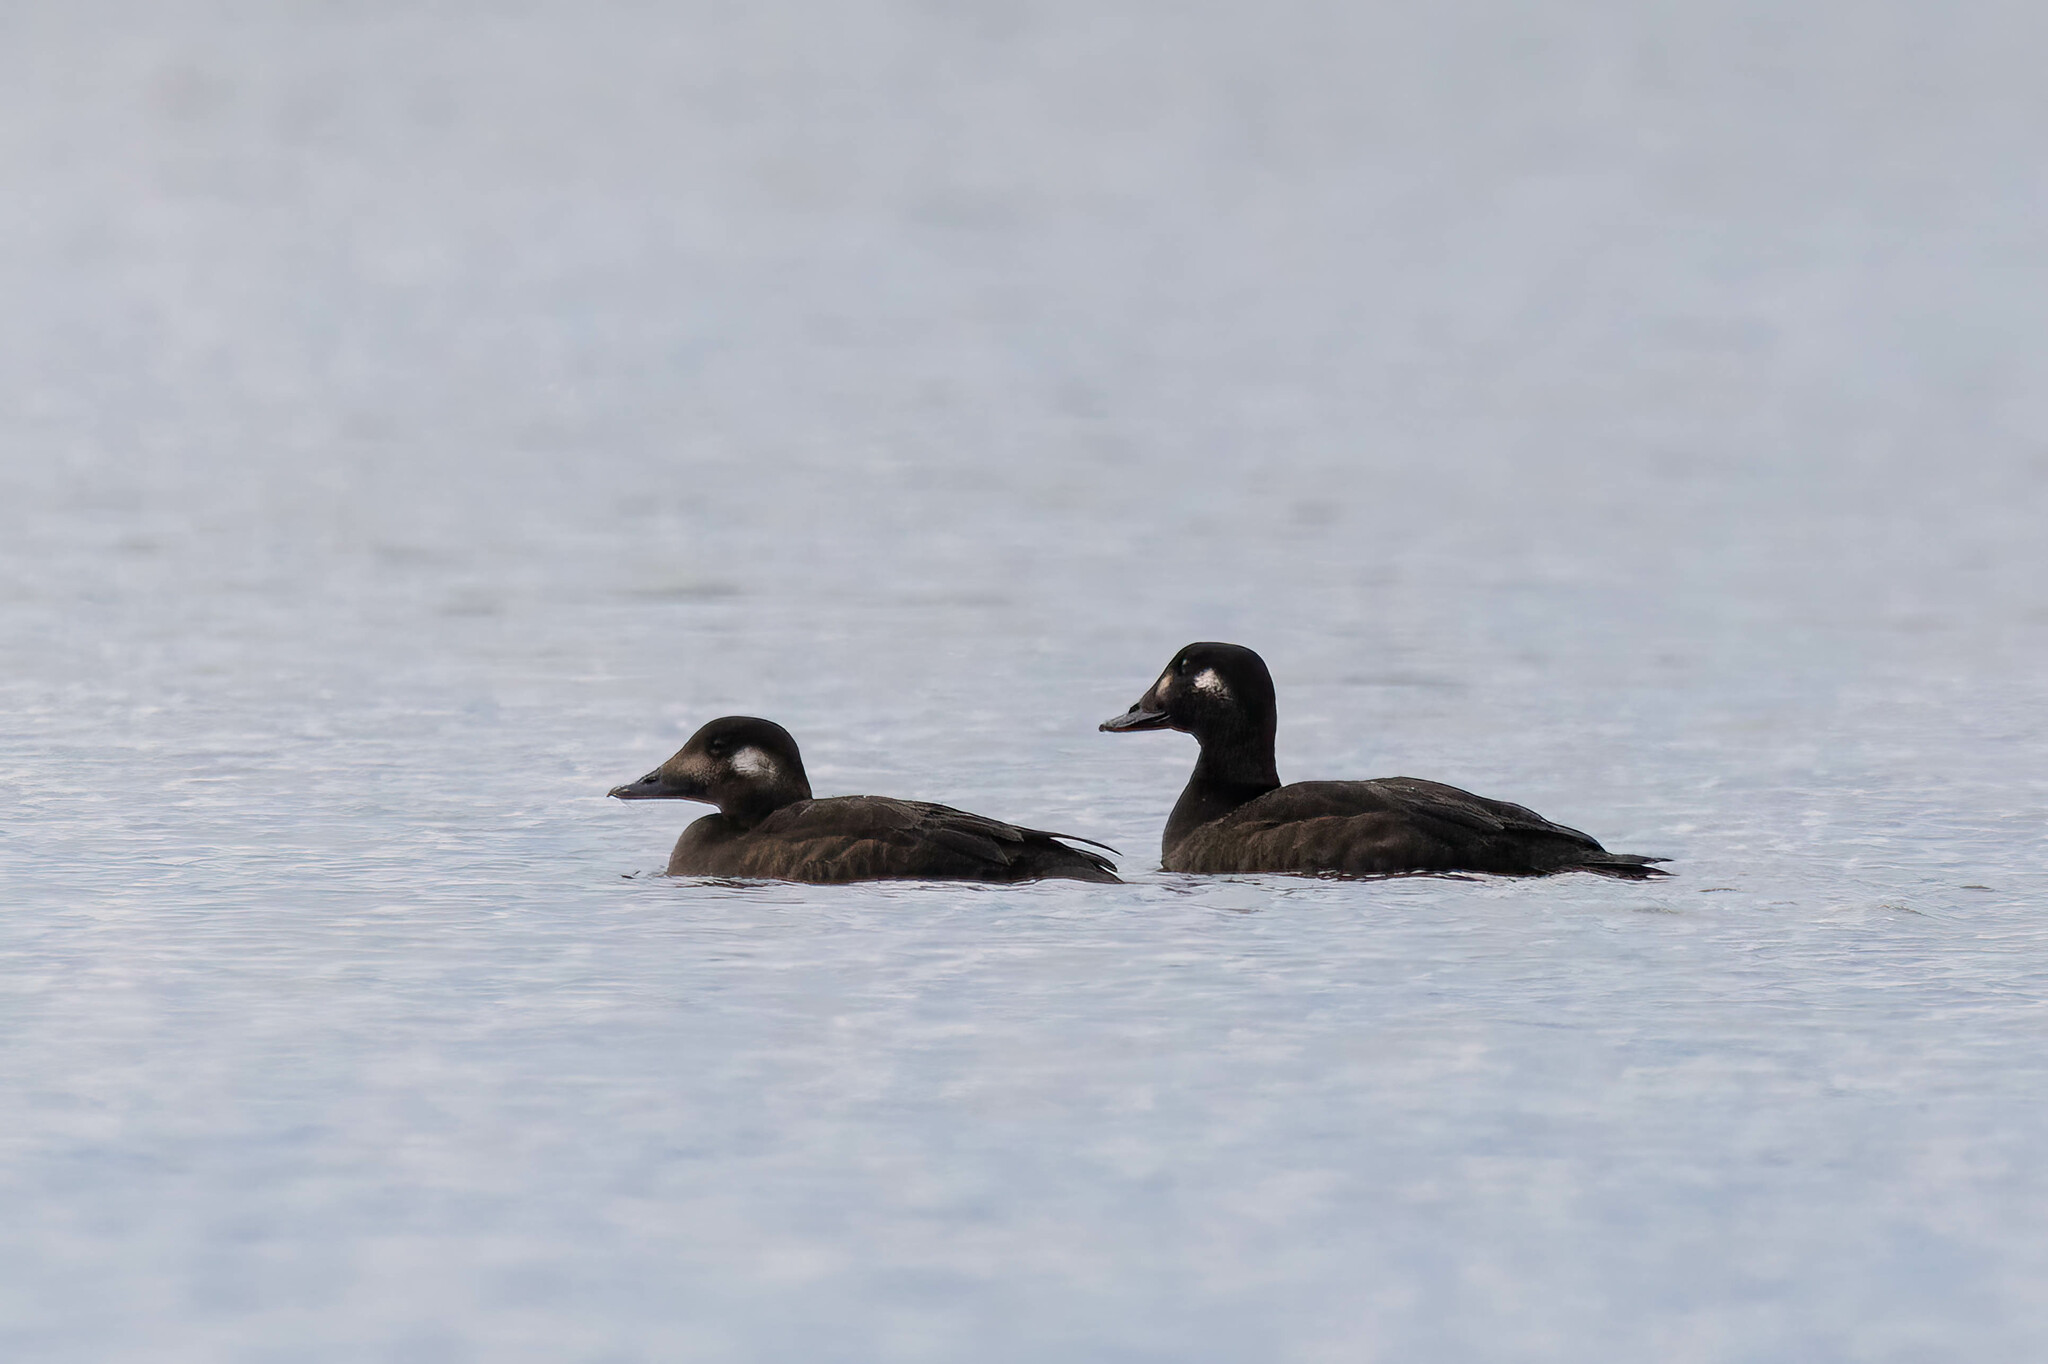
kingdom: Animalia
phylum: Chordata
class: Aves
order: Anseriformes
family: Anatidae
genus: Melanitta
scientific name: Melanitta deglandi
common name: White-winged scoter
